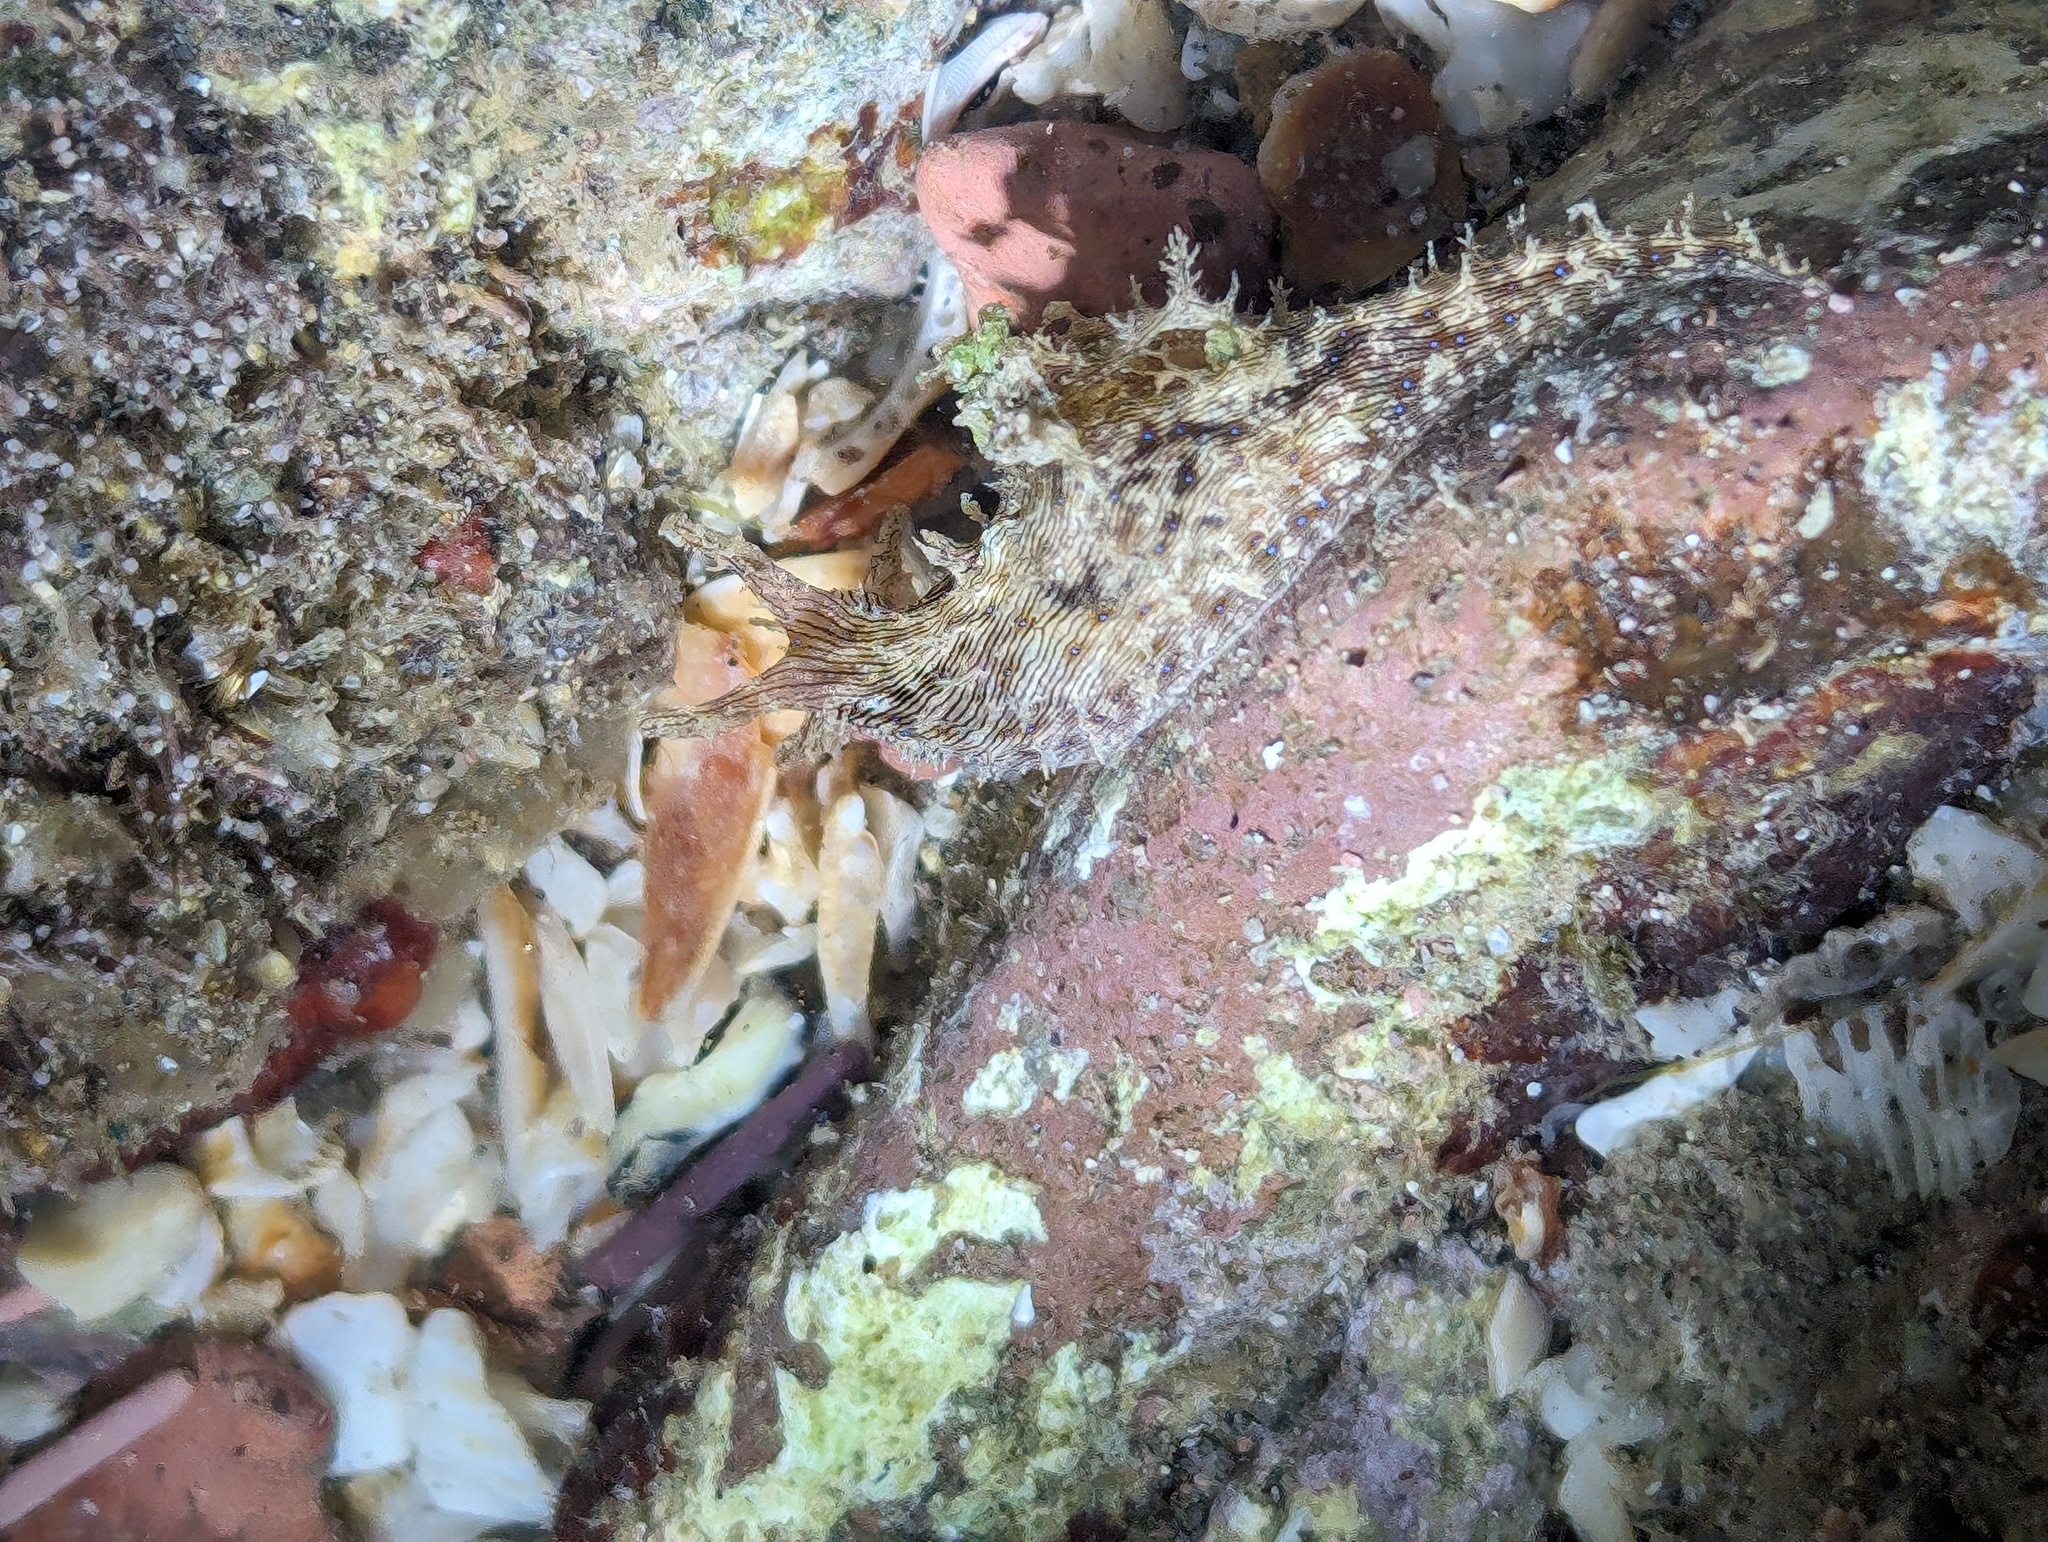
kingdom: Animalia
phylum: Mollusca
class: Gastropoda
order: Aplysiida
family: Aplysiidae
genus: Stylocheilus
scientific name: Stylocheilus rickettsi
